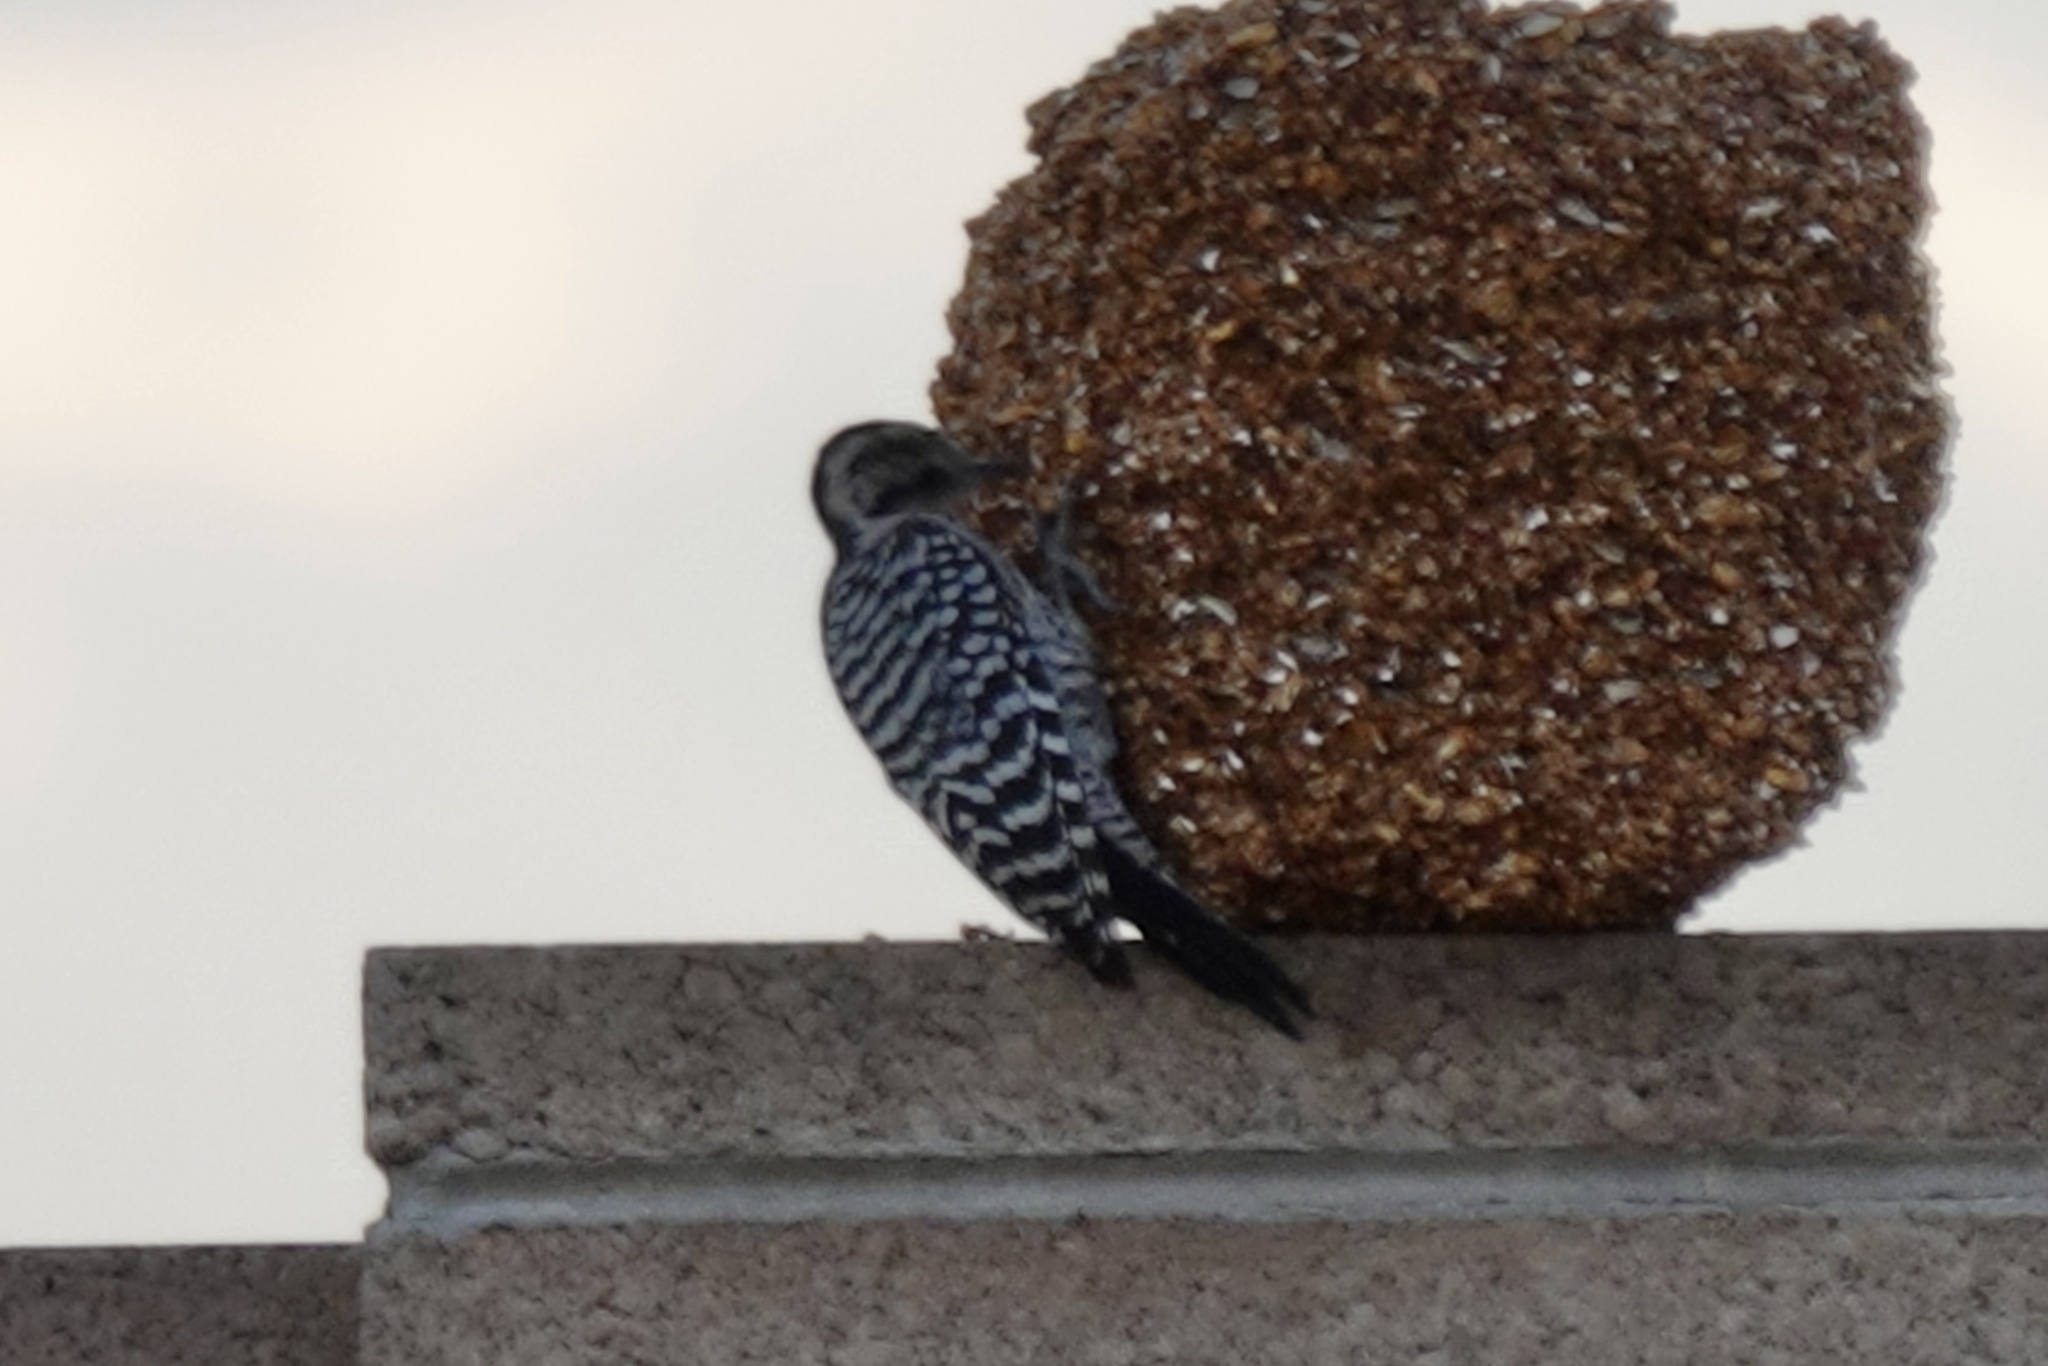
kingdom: Animalia
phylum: Chordata
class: Aves
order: Piciformes
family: Picidae
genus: Dryobates
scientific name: Dryobates scalaris
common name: Ladder-backed woodpecker
